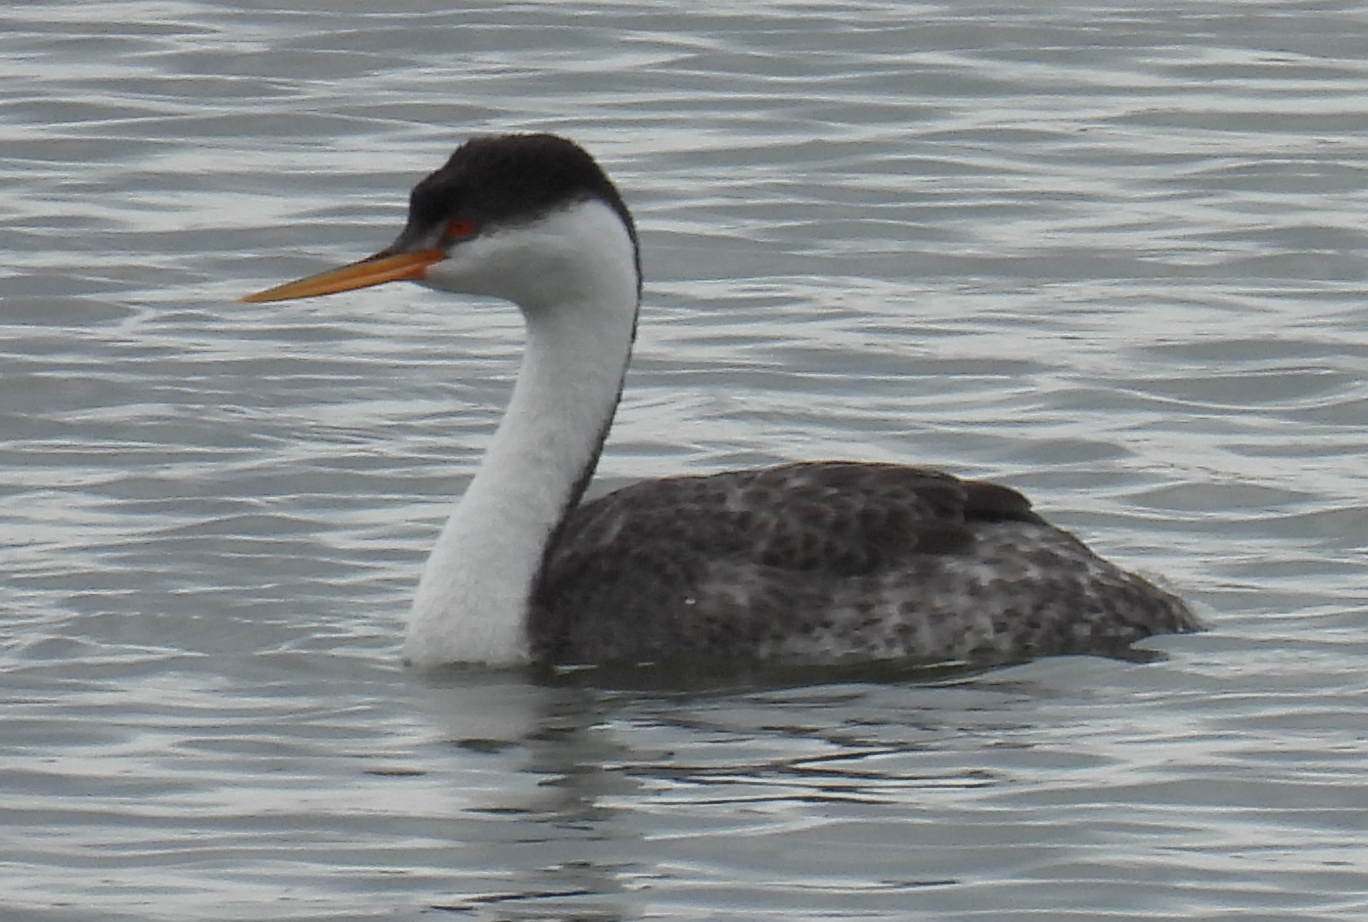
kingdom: Animalia
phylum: Chordata
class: Aves
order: Podicipediformes
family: Podicipedidae
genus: Aechmophorus
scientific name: Aechmophorus clarkii
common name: Clark's grebe
